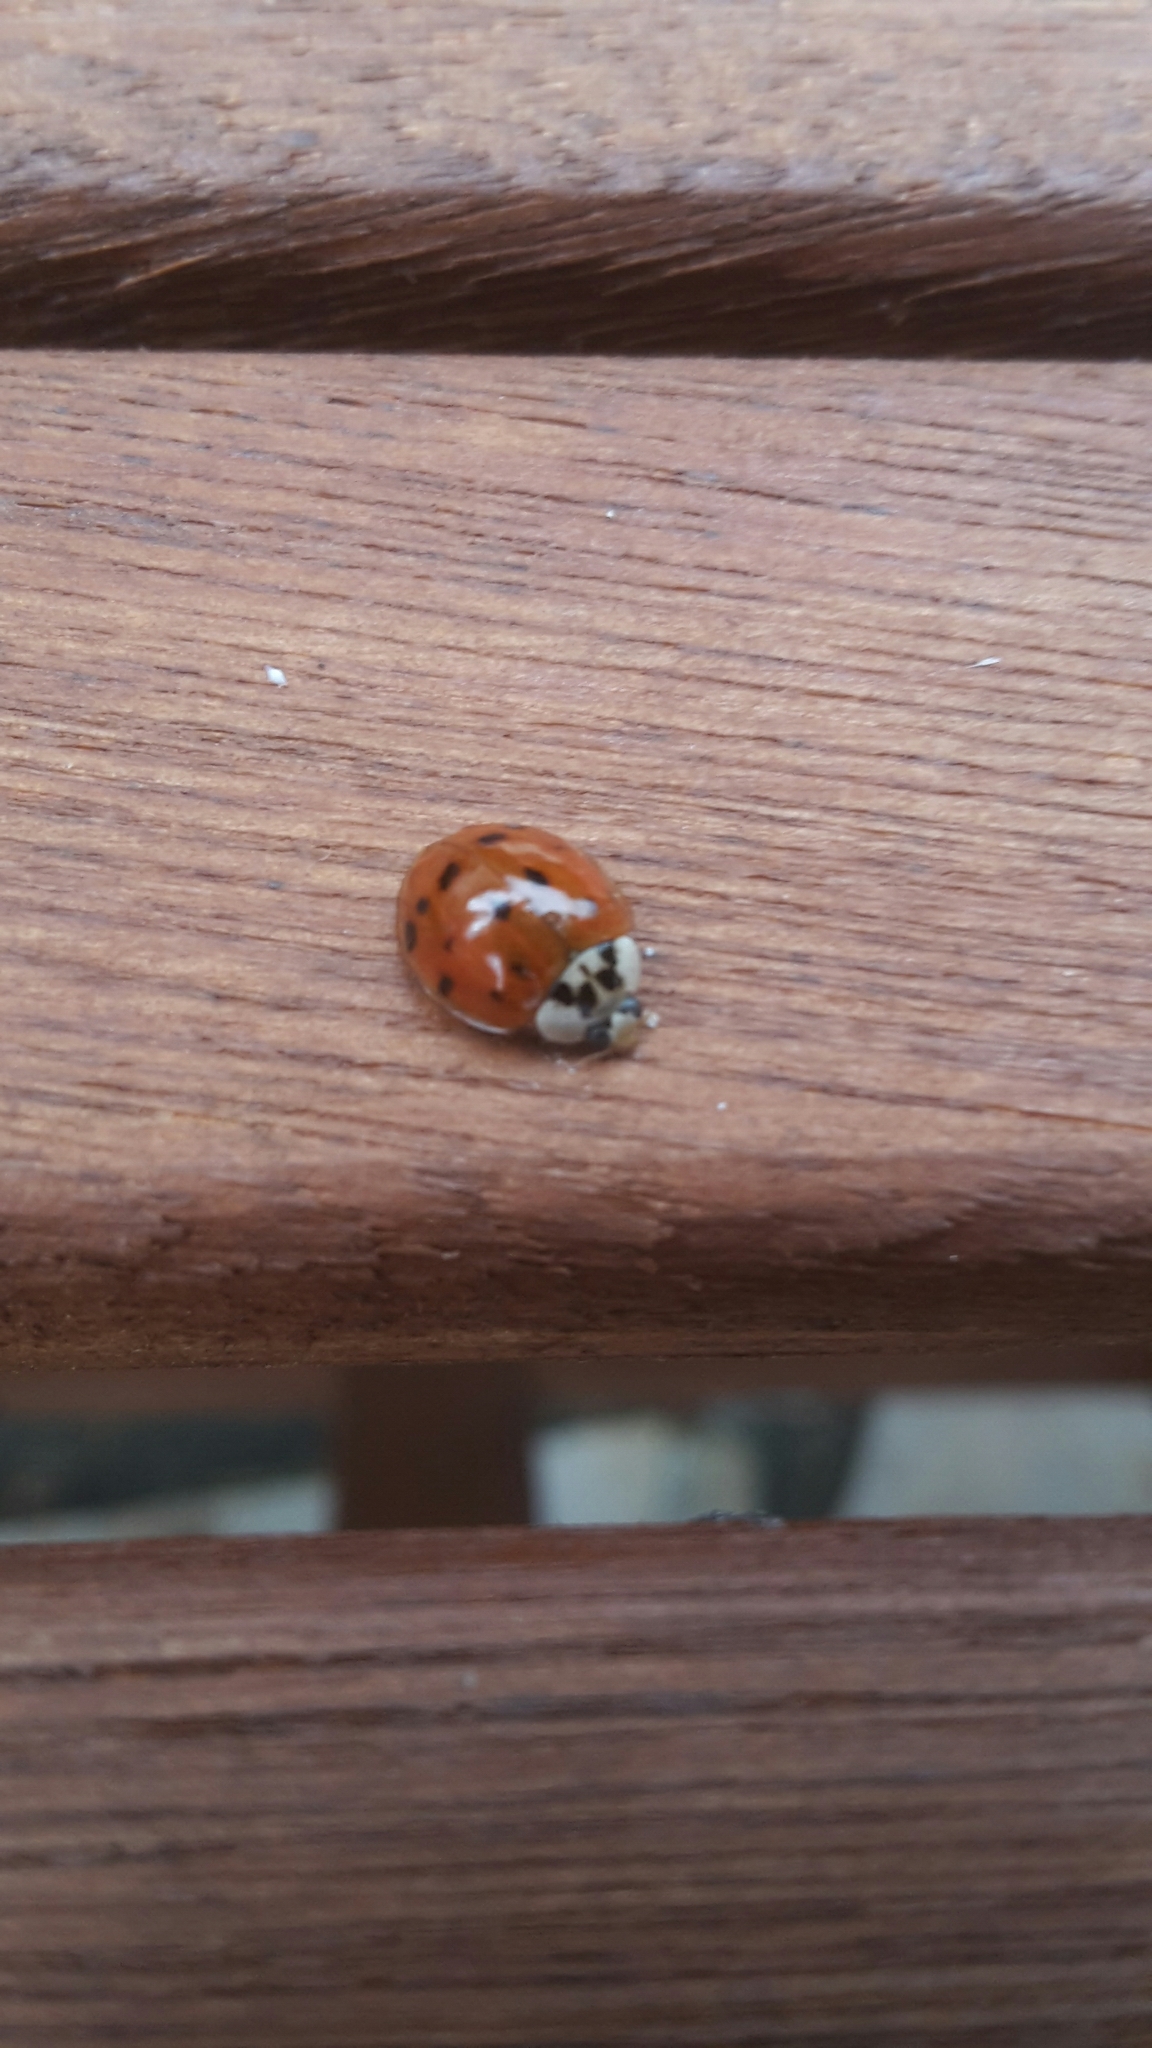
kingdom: Animalia
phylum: Arthropoda
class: Insecta
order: Coleoptera
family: Coccinellidae
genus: Harmonia
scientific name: Harmonia axyridis
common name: Harlequin ladybird
